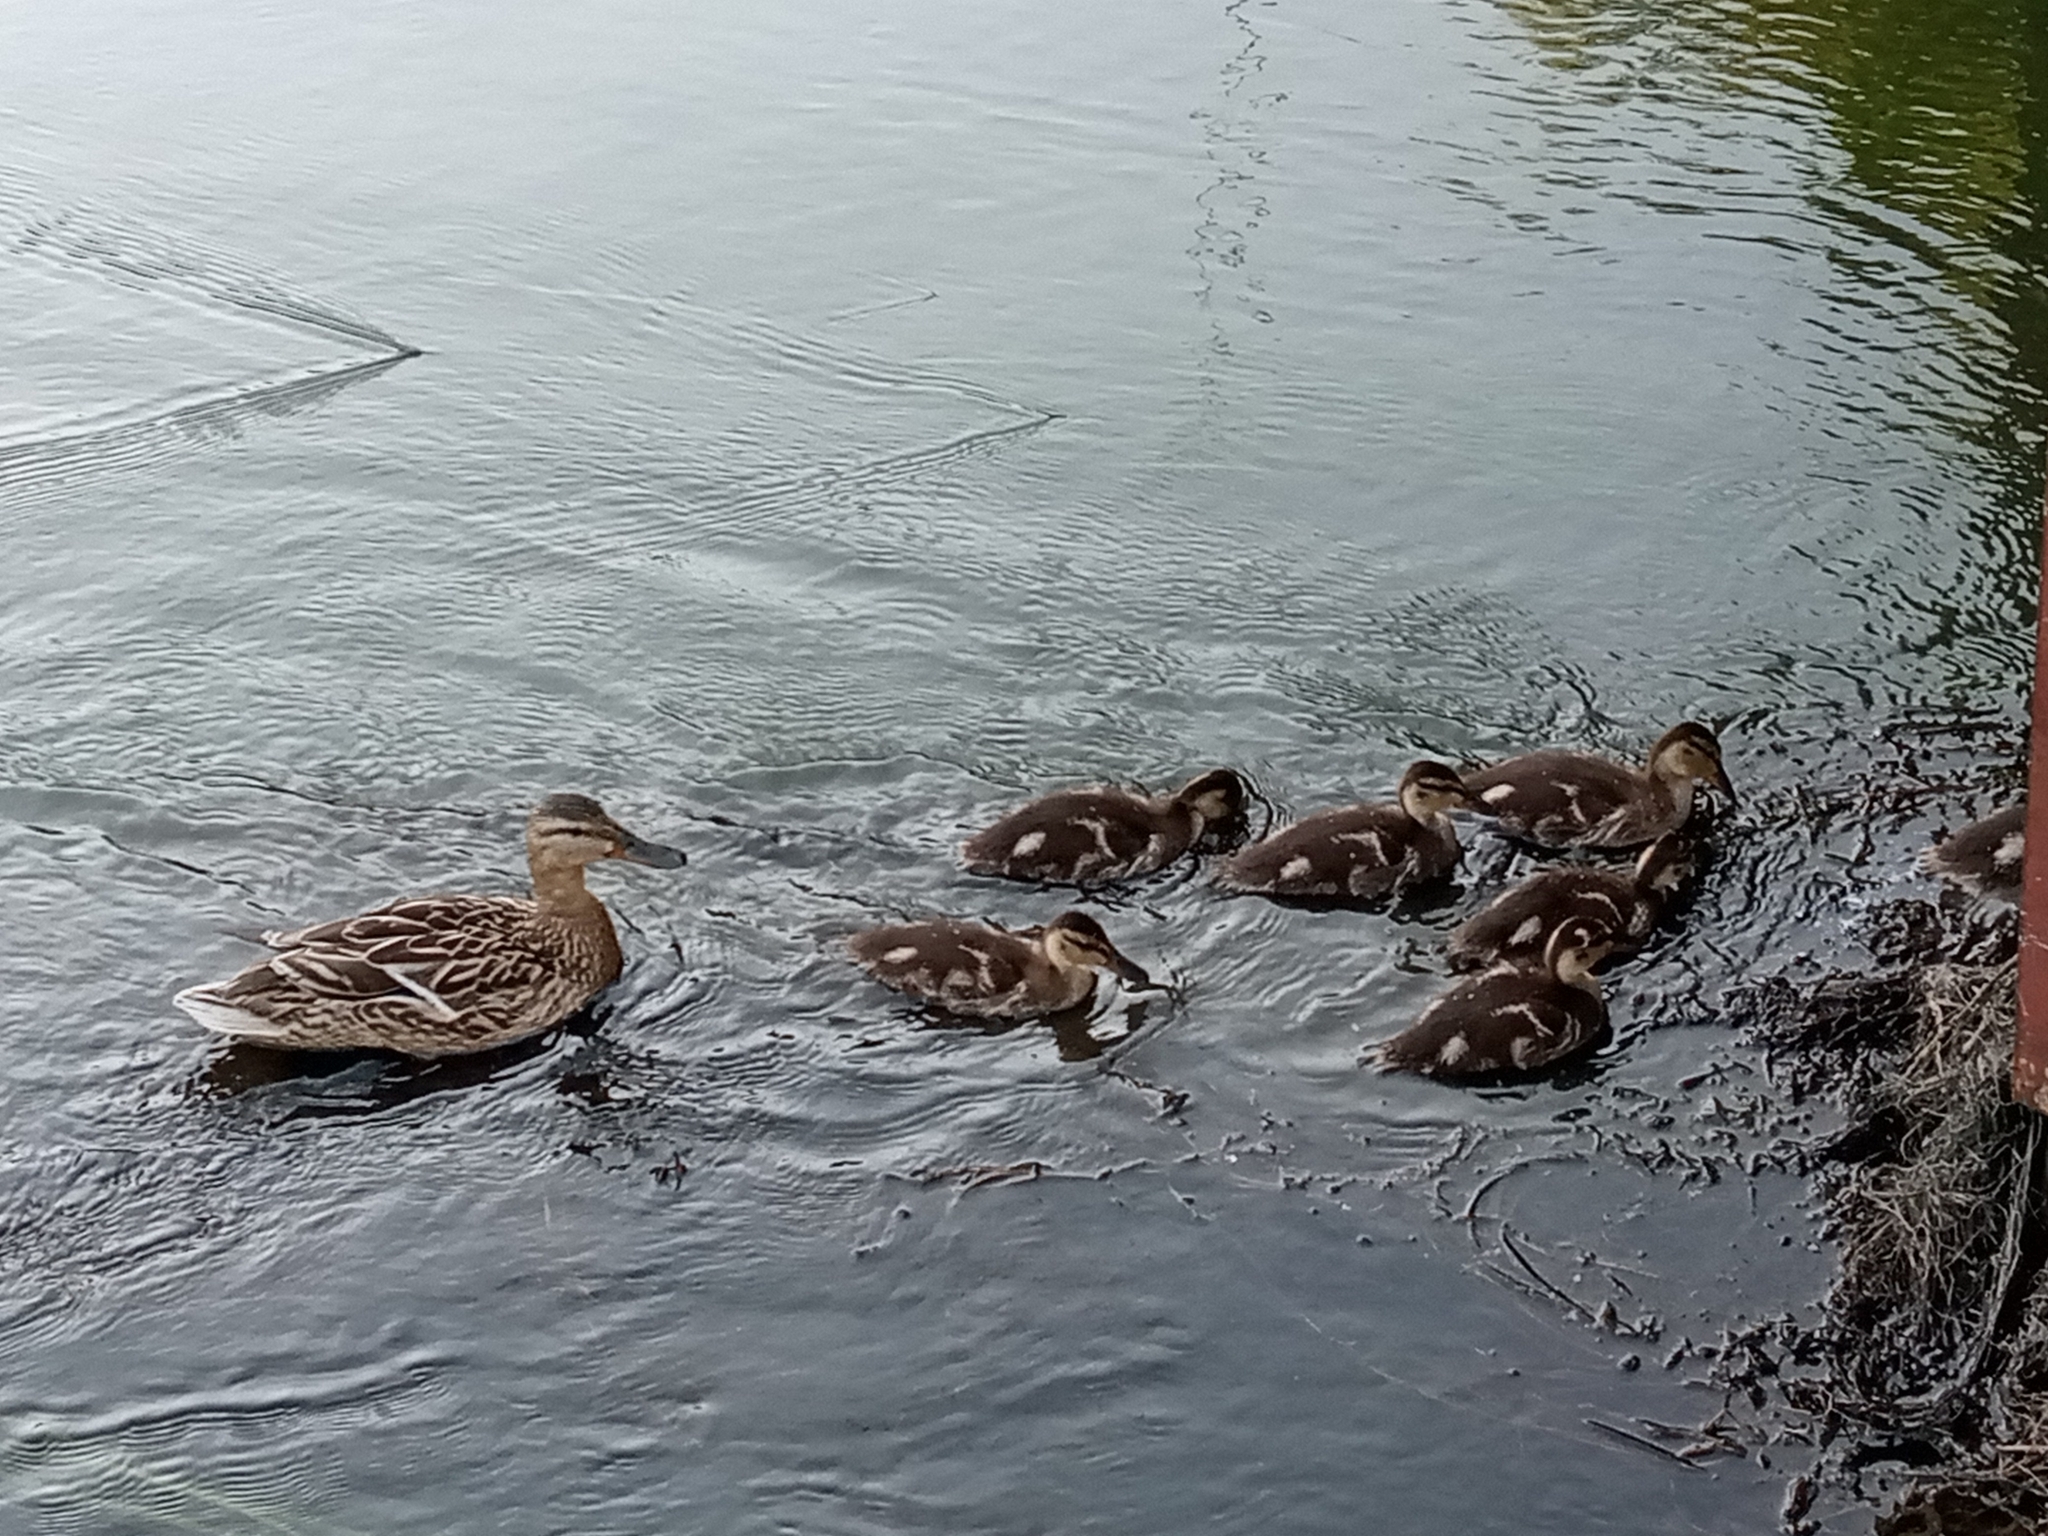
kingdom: Animalia
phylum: Chordata
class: Aves
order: Anseriformes
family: Anatidae
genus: Anas
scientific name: Anas platyrhynchos
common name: Mallard
